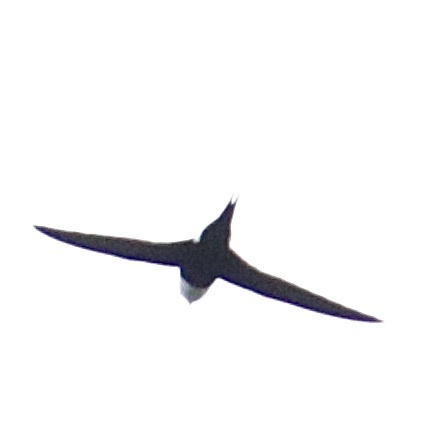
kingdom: Animalia
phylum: Chordata
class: Aves
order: Apodiformes
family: Apodidae
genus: Panyptila
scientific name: Panyptila cayennensis
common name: Lesser swallow-tailed swift
